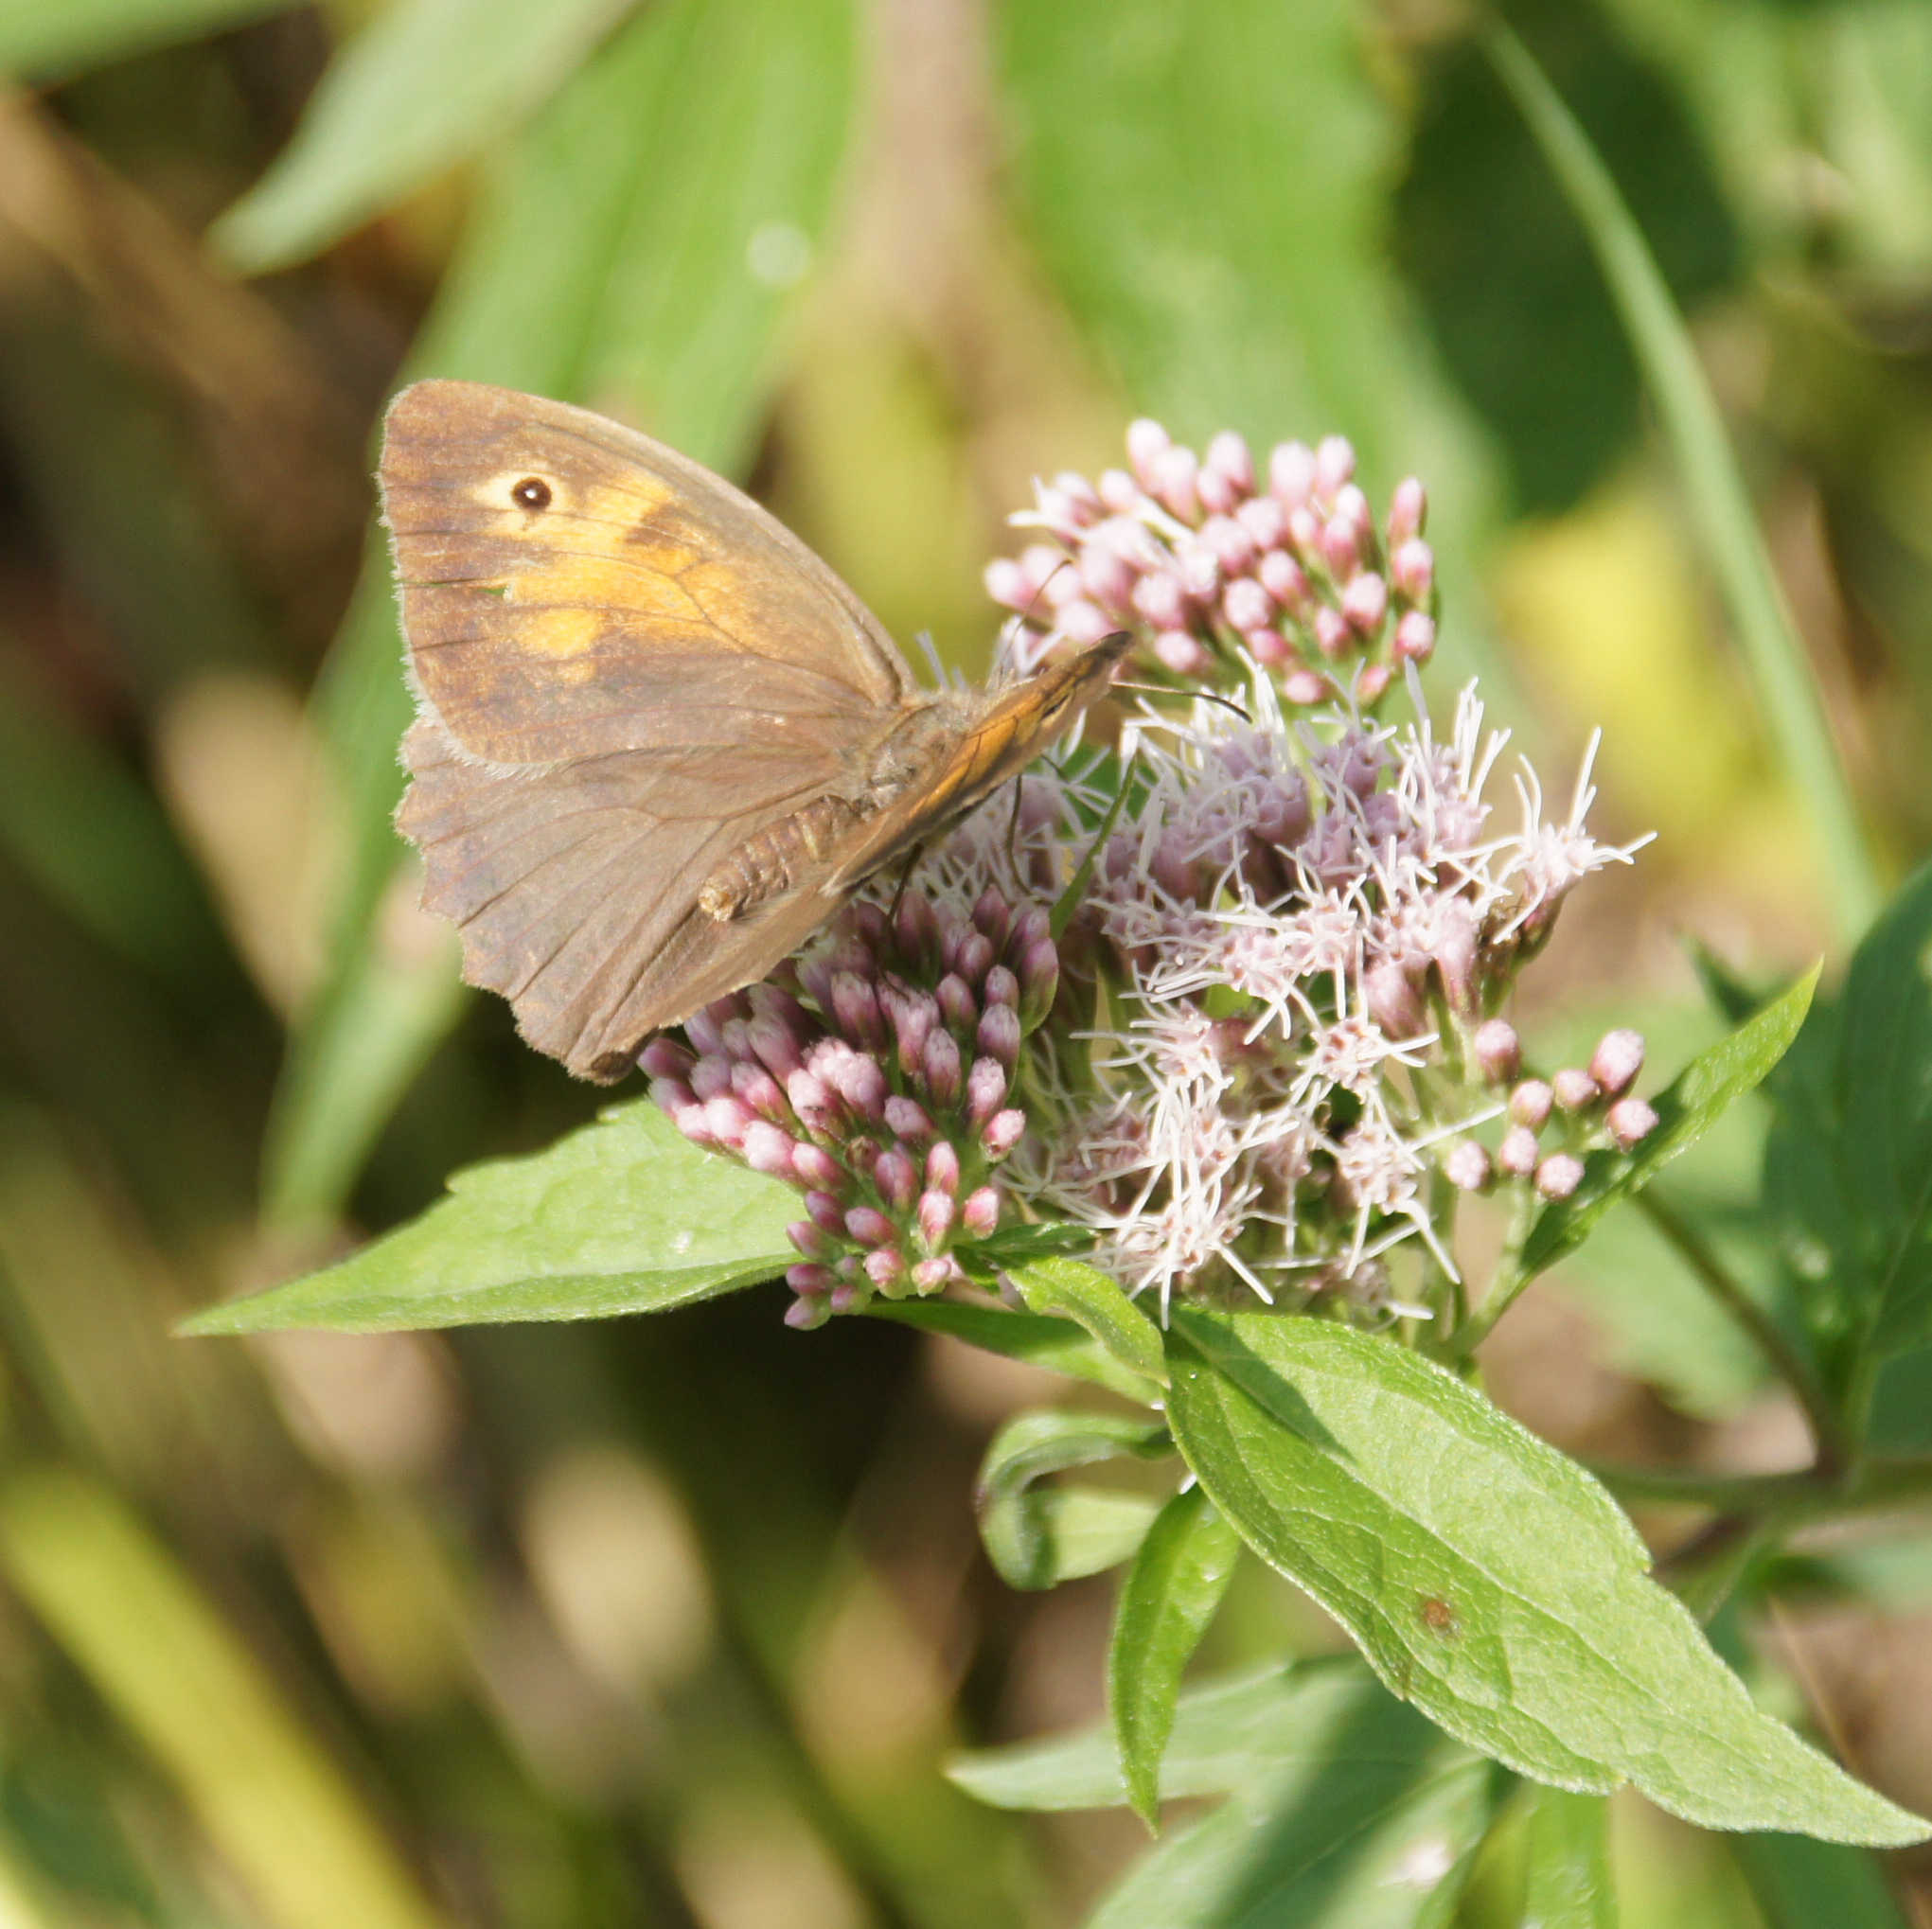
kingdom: Animalia
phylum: Arthropoda
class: Insecta
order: Lepidoptera
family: Nymphalidae
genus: Maniola
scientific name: Maniola jurtina
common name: Meadow brown
